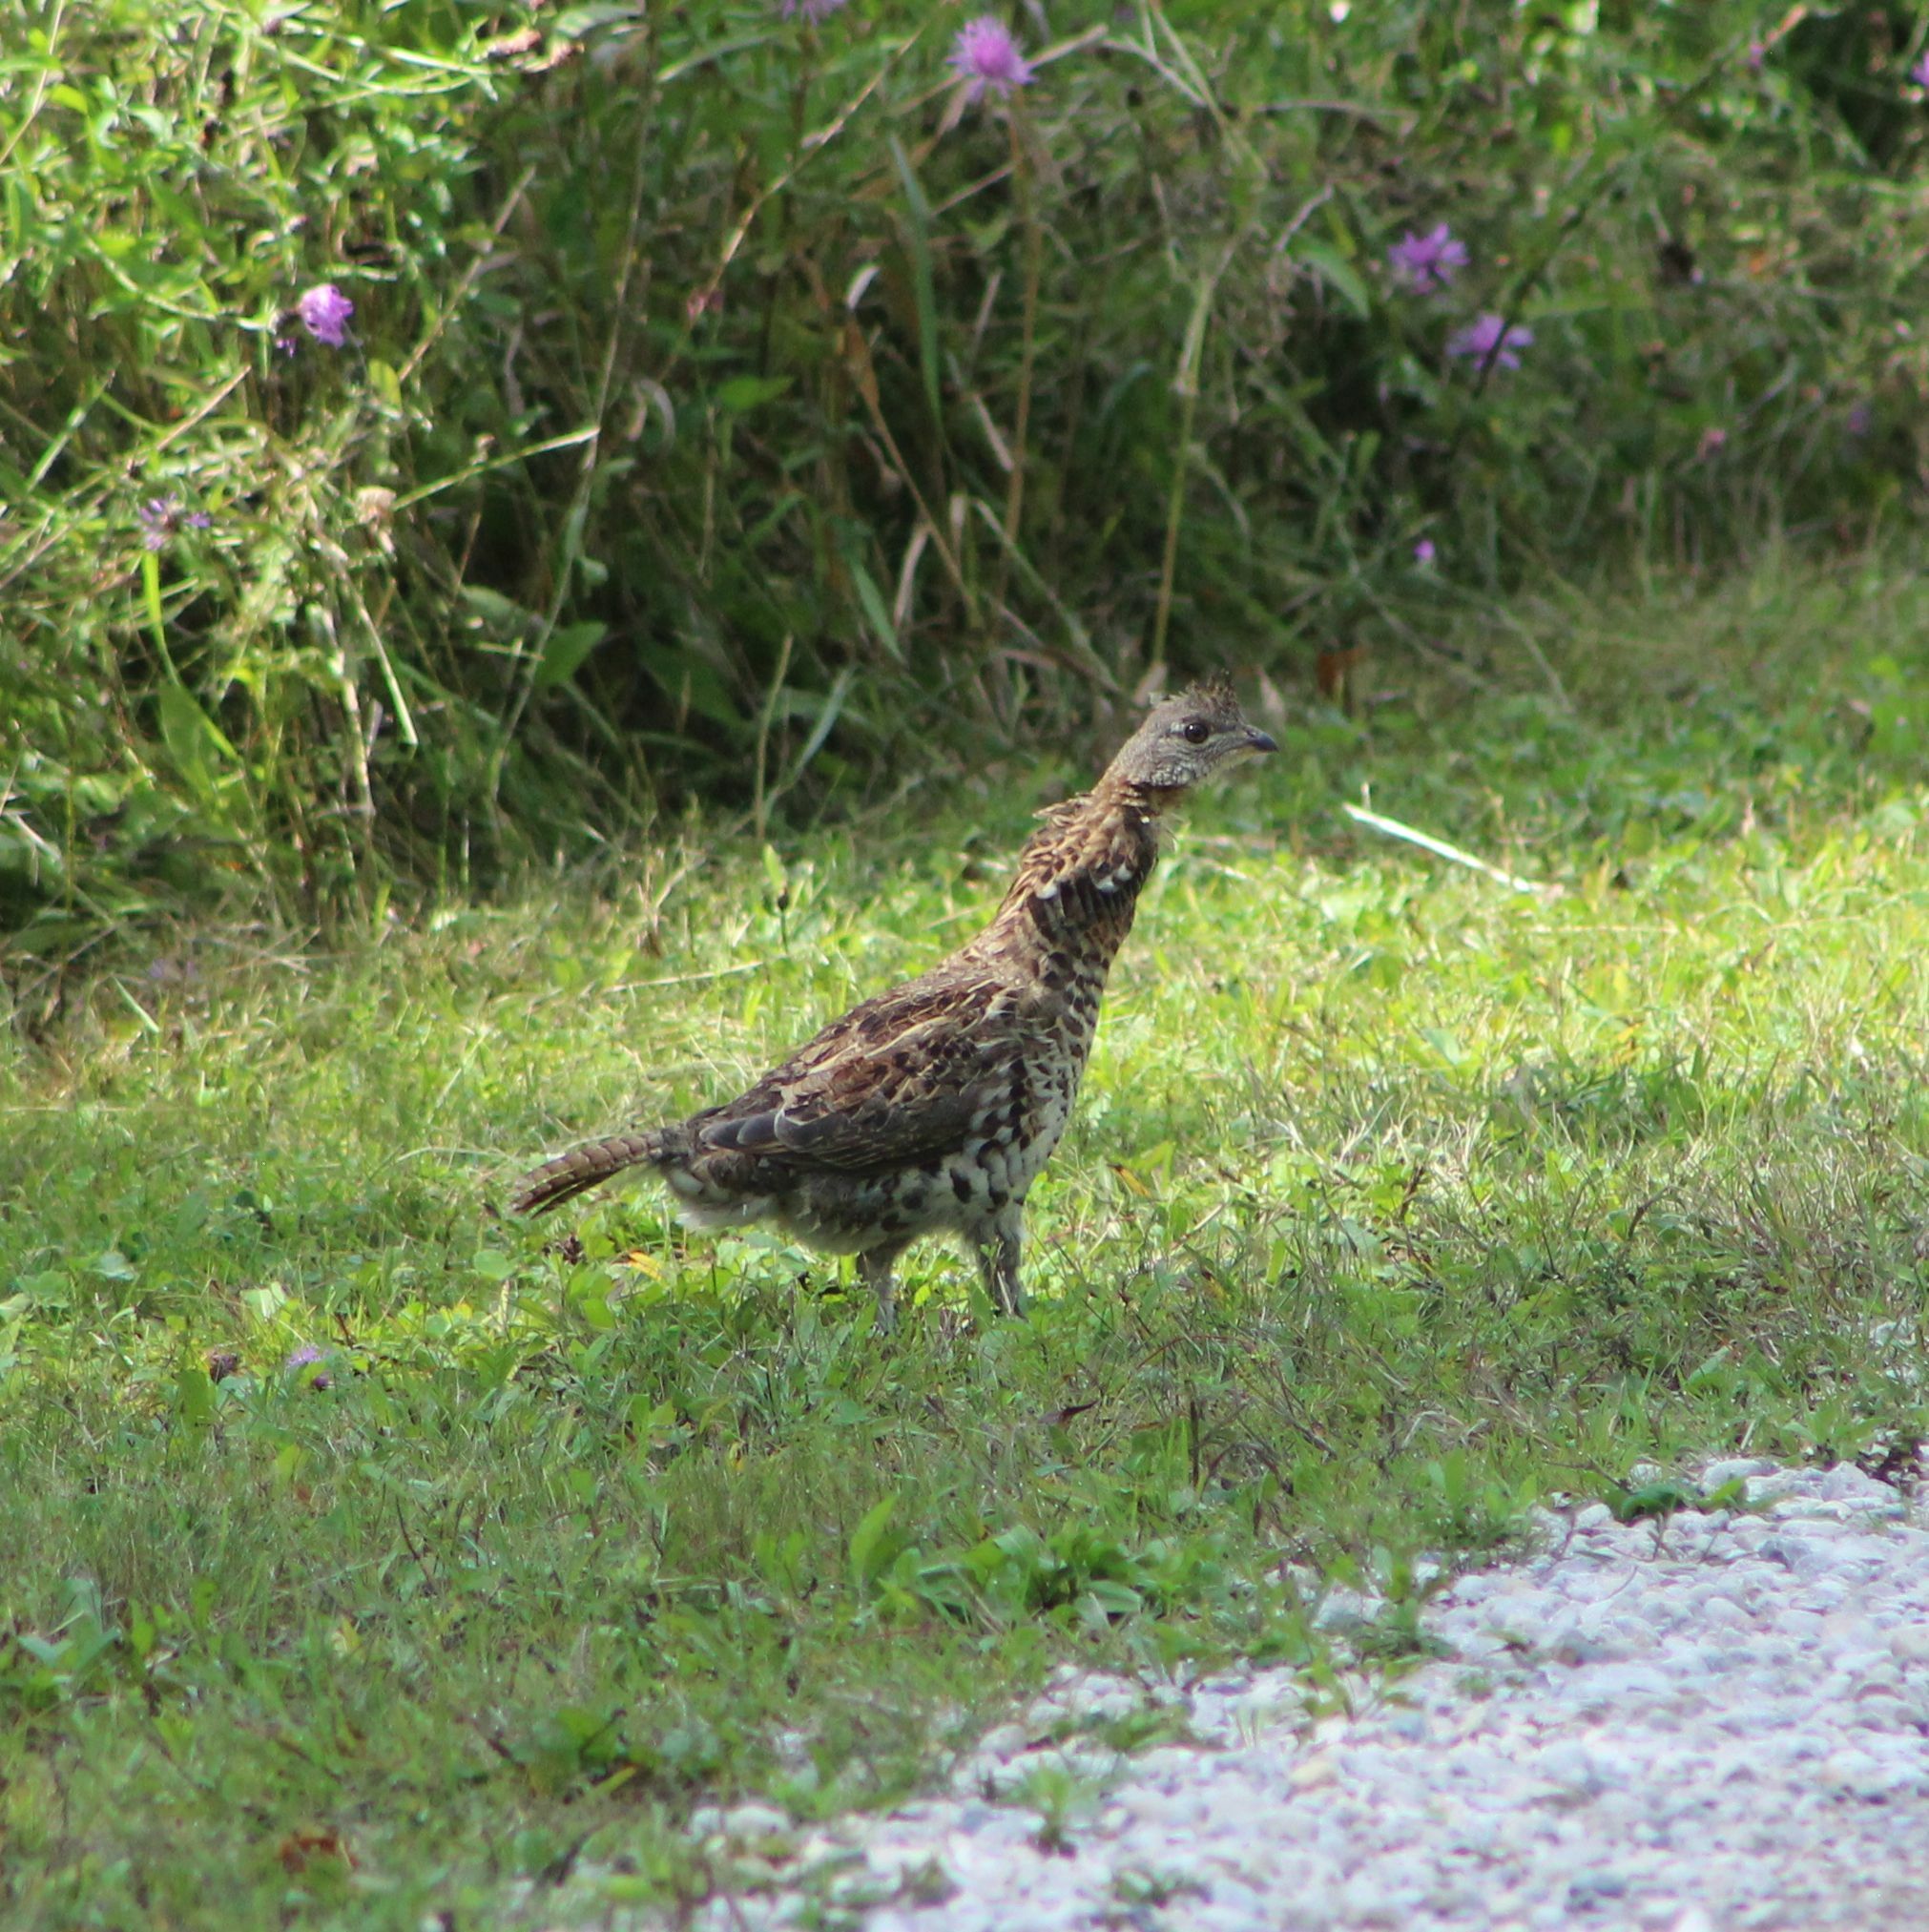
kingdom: Animalia
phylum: Chordata
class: Aves
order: Galliformes
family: Phasianidae
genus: Bonasa
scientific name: Bonasa umbellus
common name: Ruffed grouse
